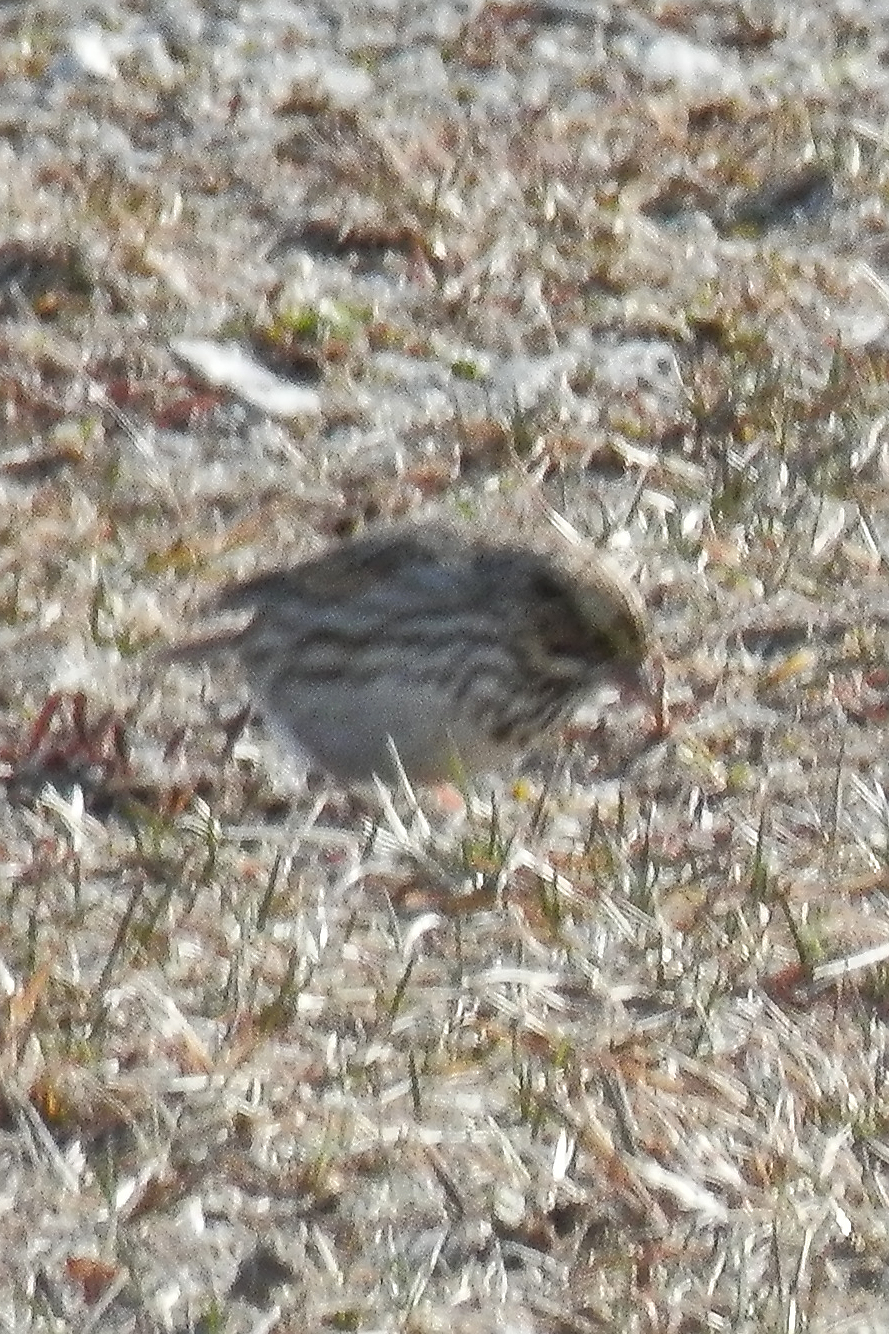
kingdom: Animalia
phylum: Chordata
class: Aves
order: Passeriformes
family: Passerellidae
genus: Passerculus
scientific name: Passerculus sandwichensis
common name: Savannah sparrow
